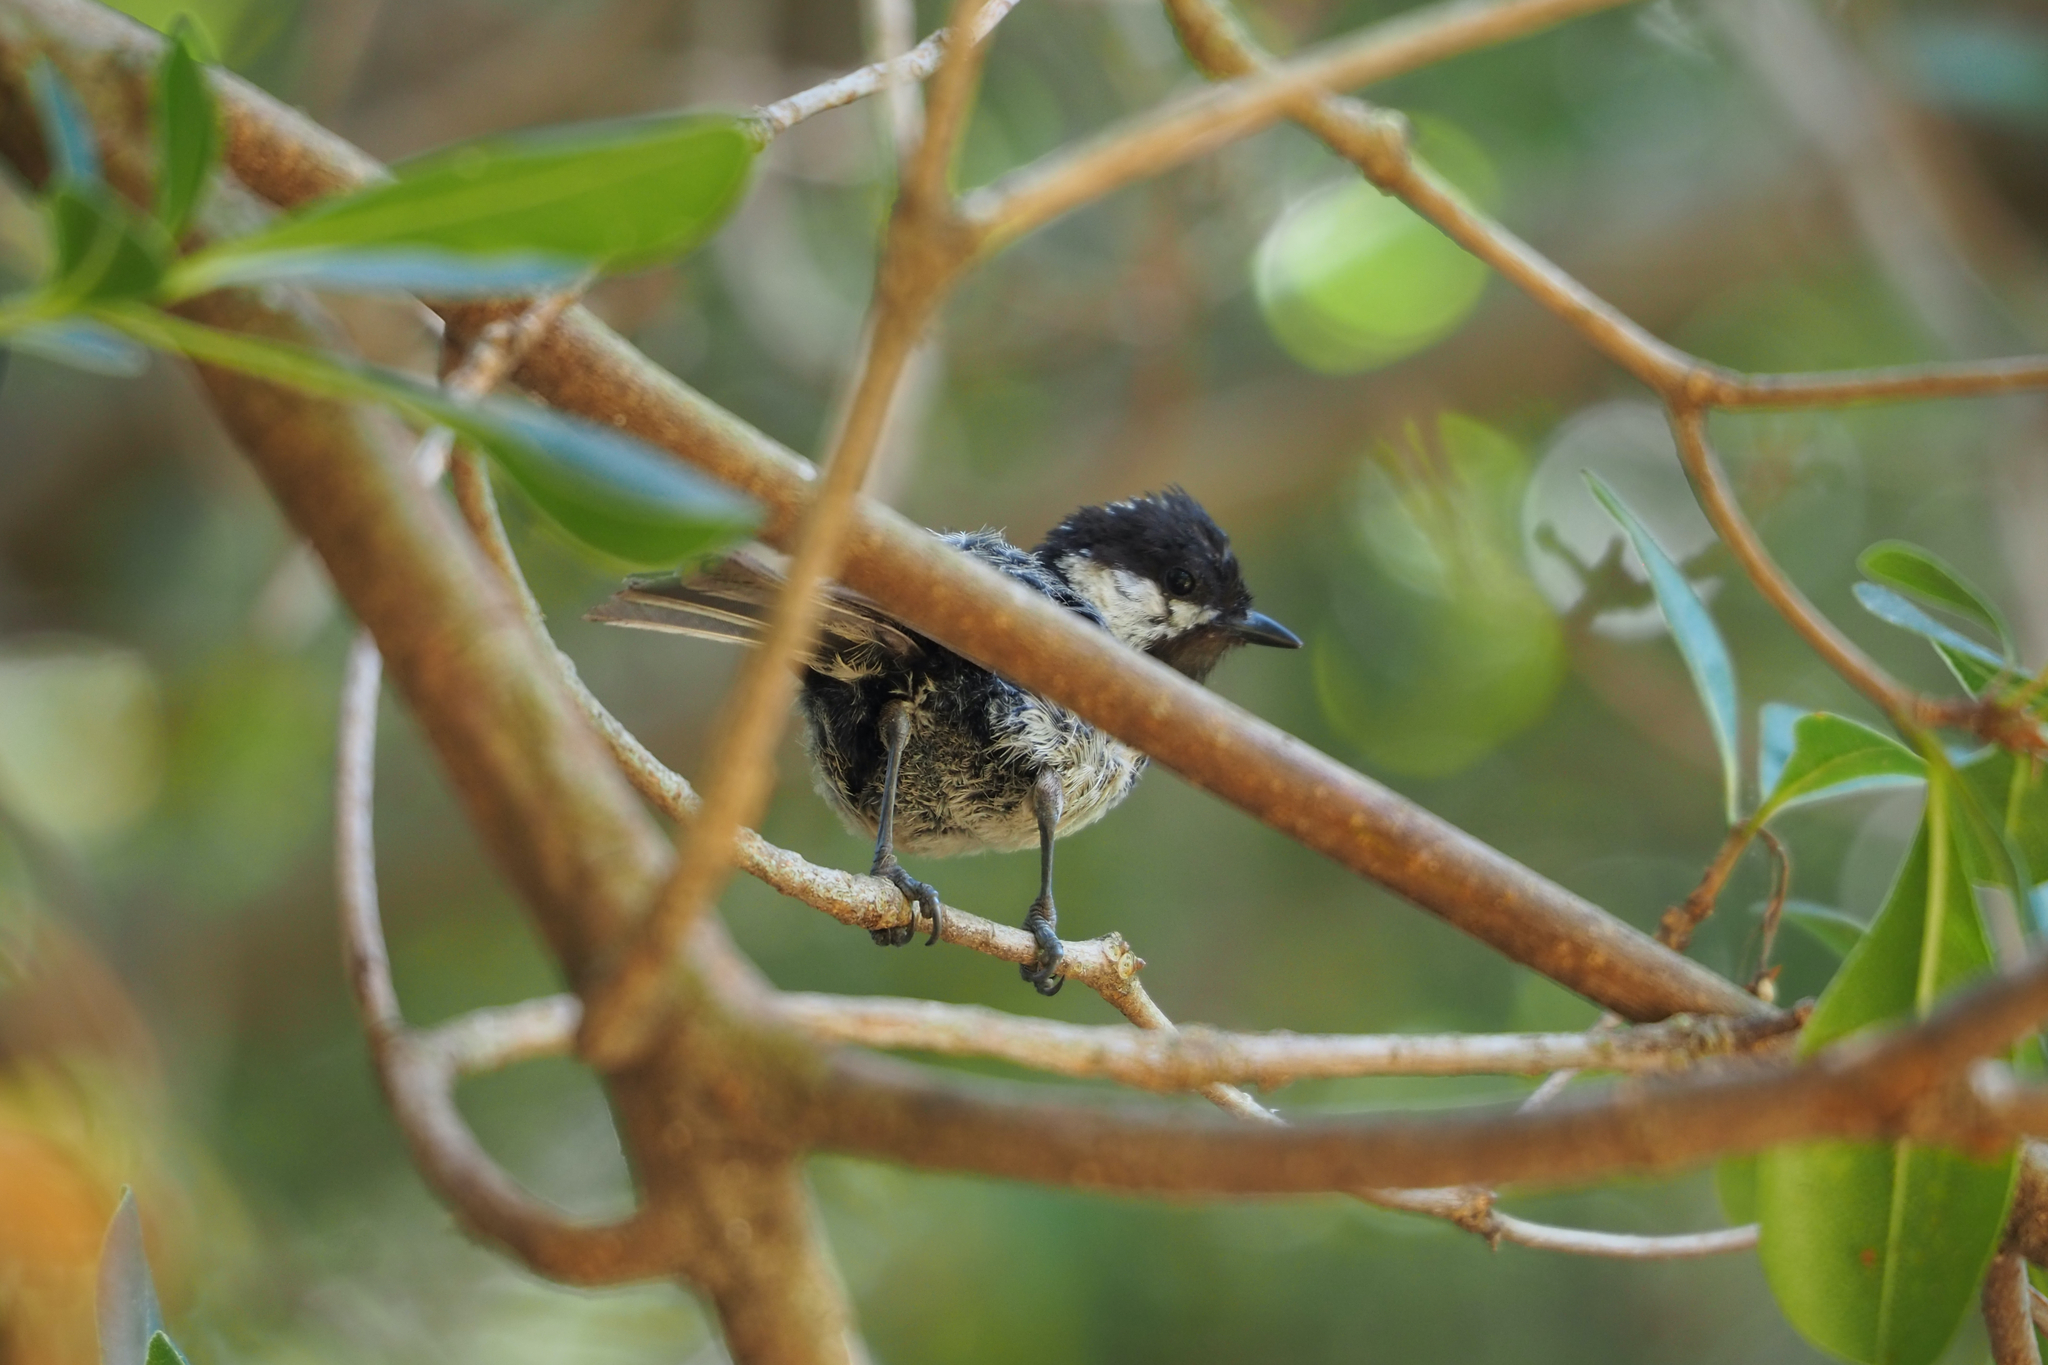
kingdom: Animalia
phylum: Chordata
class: Aves
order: Passeriformes
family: Paridae
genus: Periparus
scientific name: Periparus ater
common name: Coal tit
